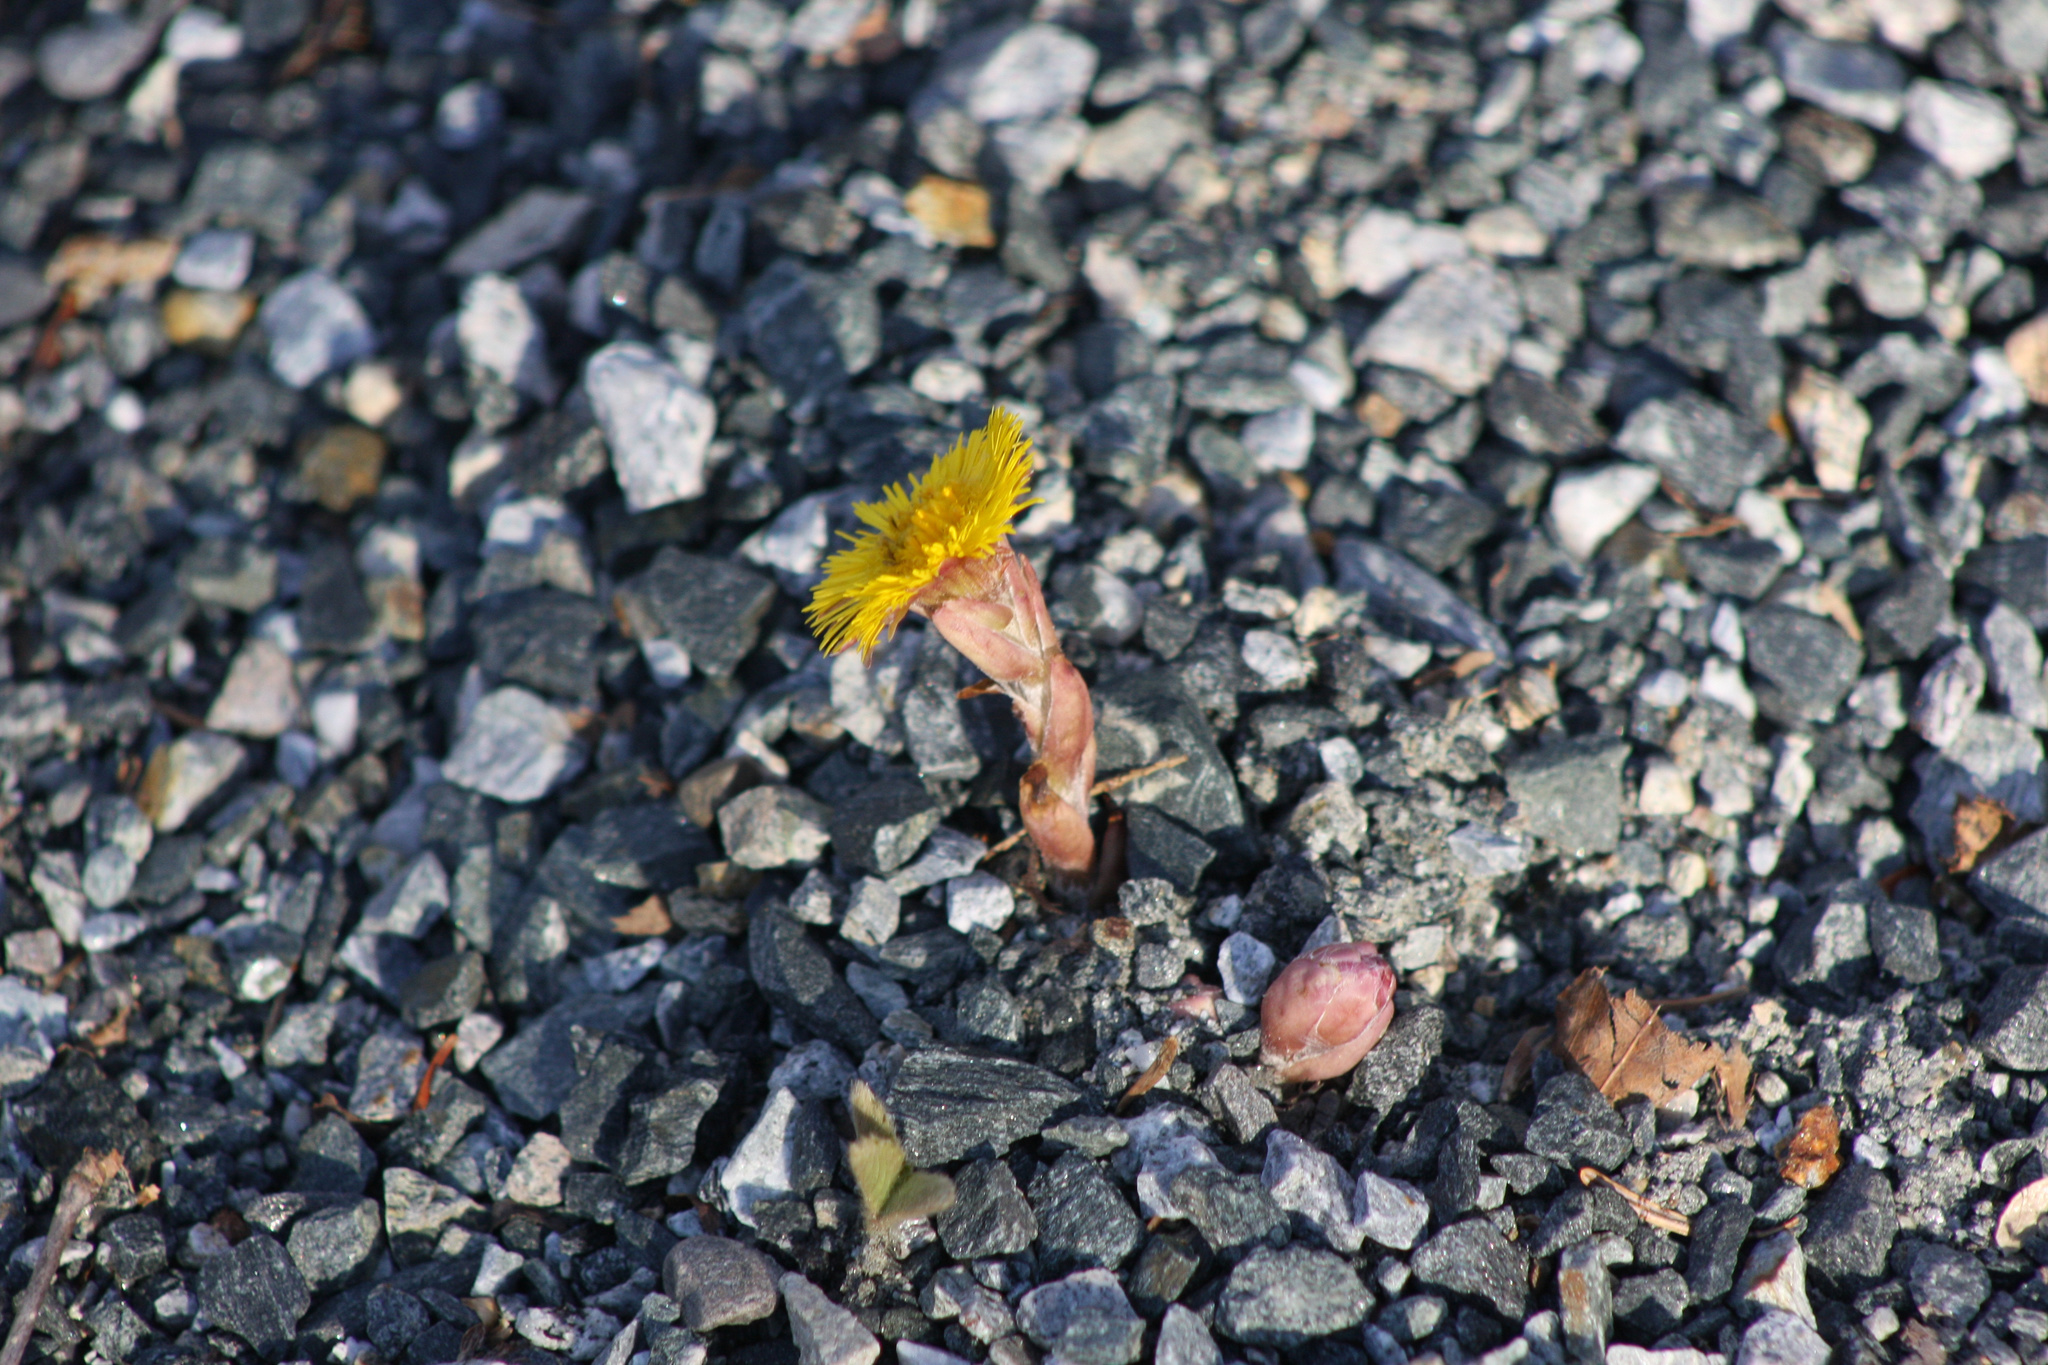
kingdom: Plantae
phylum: Tracheophyta
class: Magnoliopsida
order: Asterales
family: Asteraceae
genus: Tussilago
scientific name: Tussilago farfara
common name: Coltsfoot
